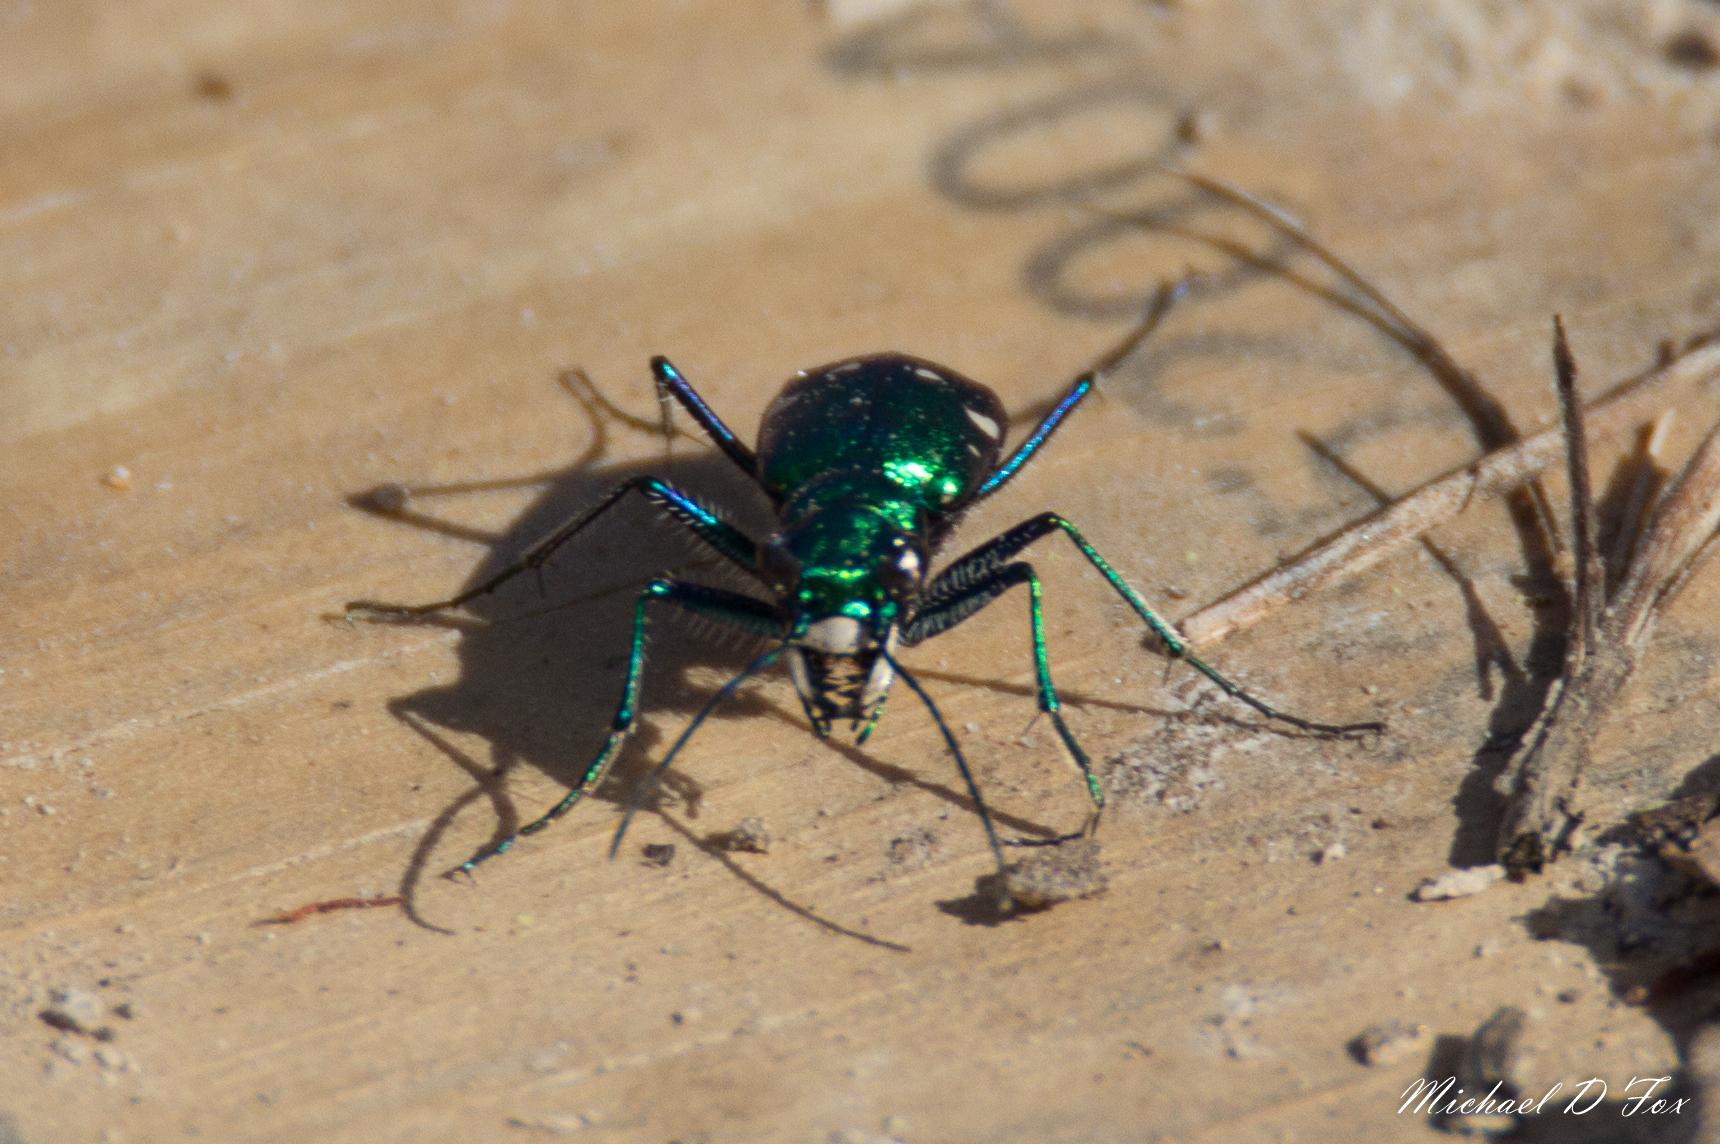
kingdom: Animalia
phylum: Arthropoda
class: Insecta
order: Coleoptera
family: Carabidae
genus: Cicindela
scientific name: Cicindela sexguttata
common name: Six-spotted tiger beetle
